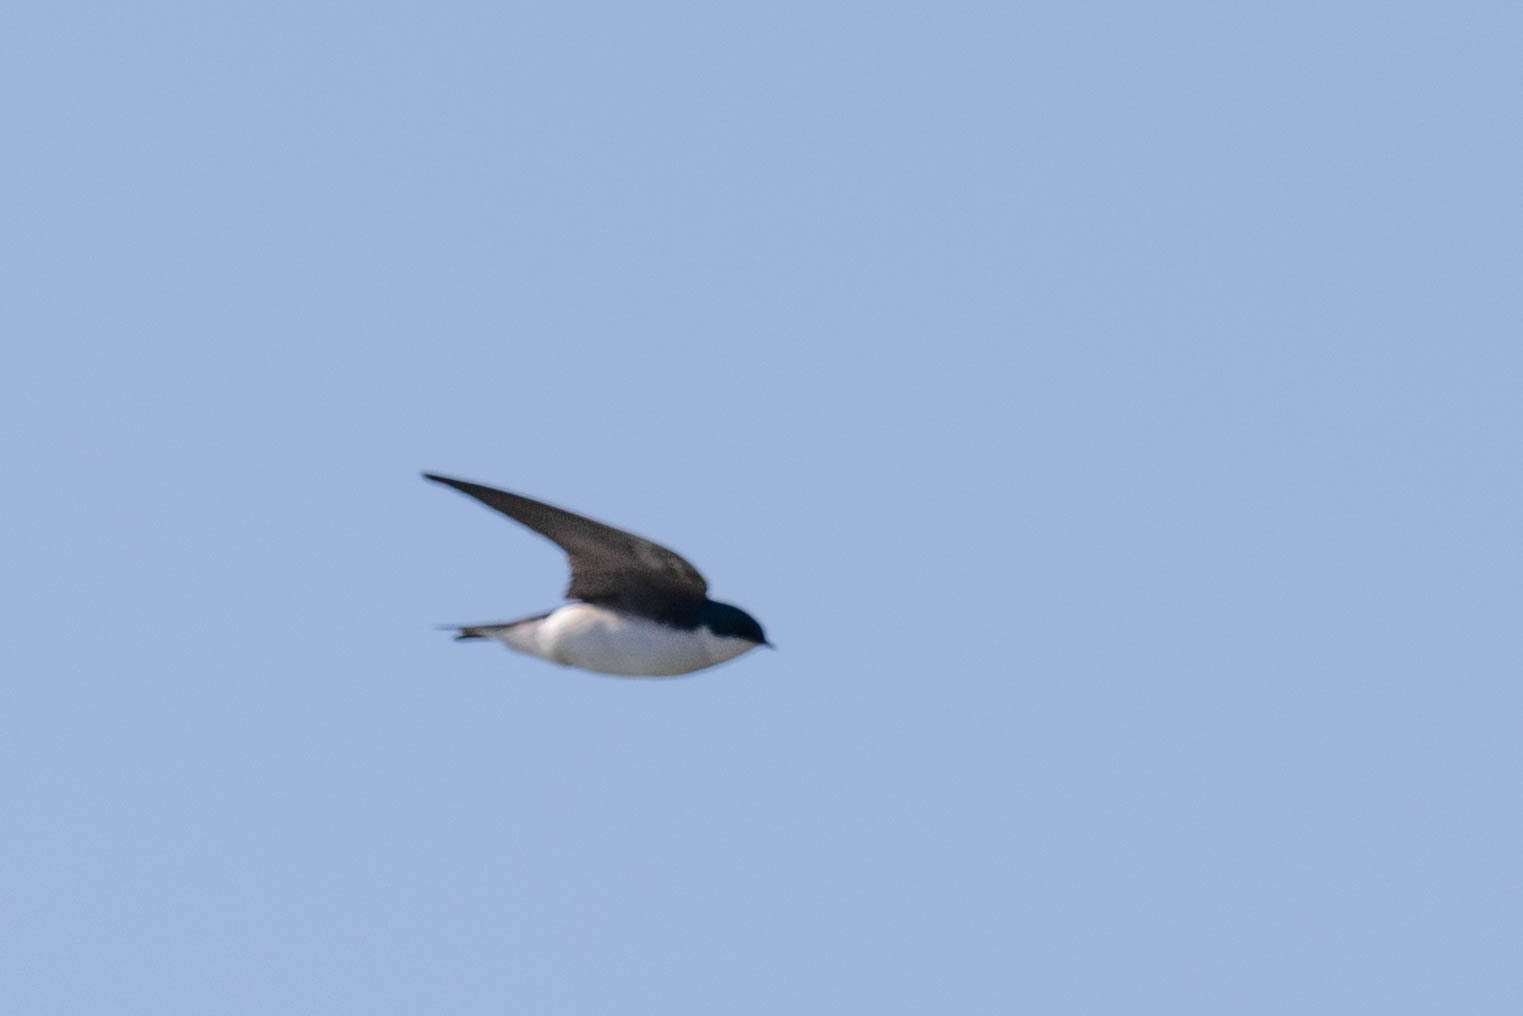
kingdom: Animalia
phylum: Chordata
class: Aves
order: Passeriformes
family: Hirundinidae
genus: Tachycineta
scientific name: Tachycineta bicolor
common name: Tree swallow
